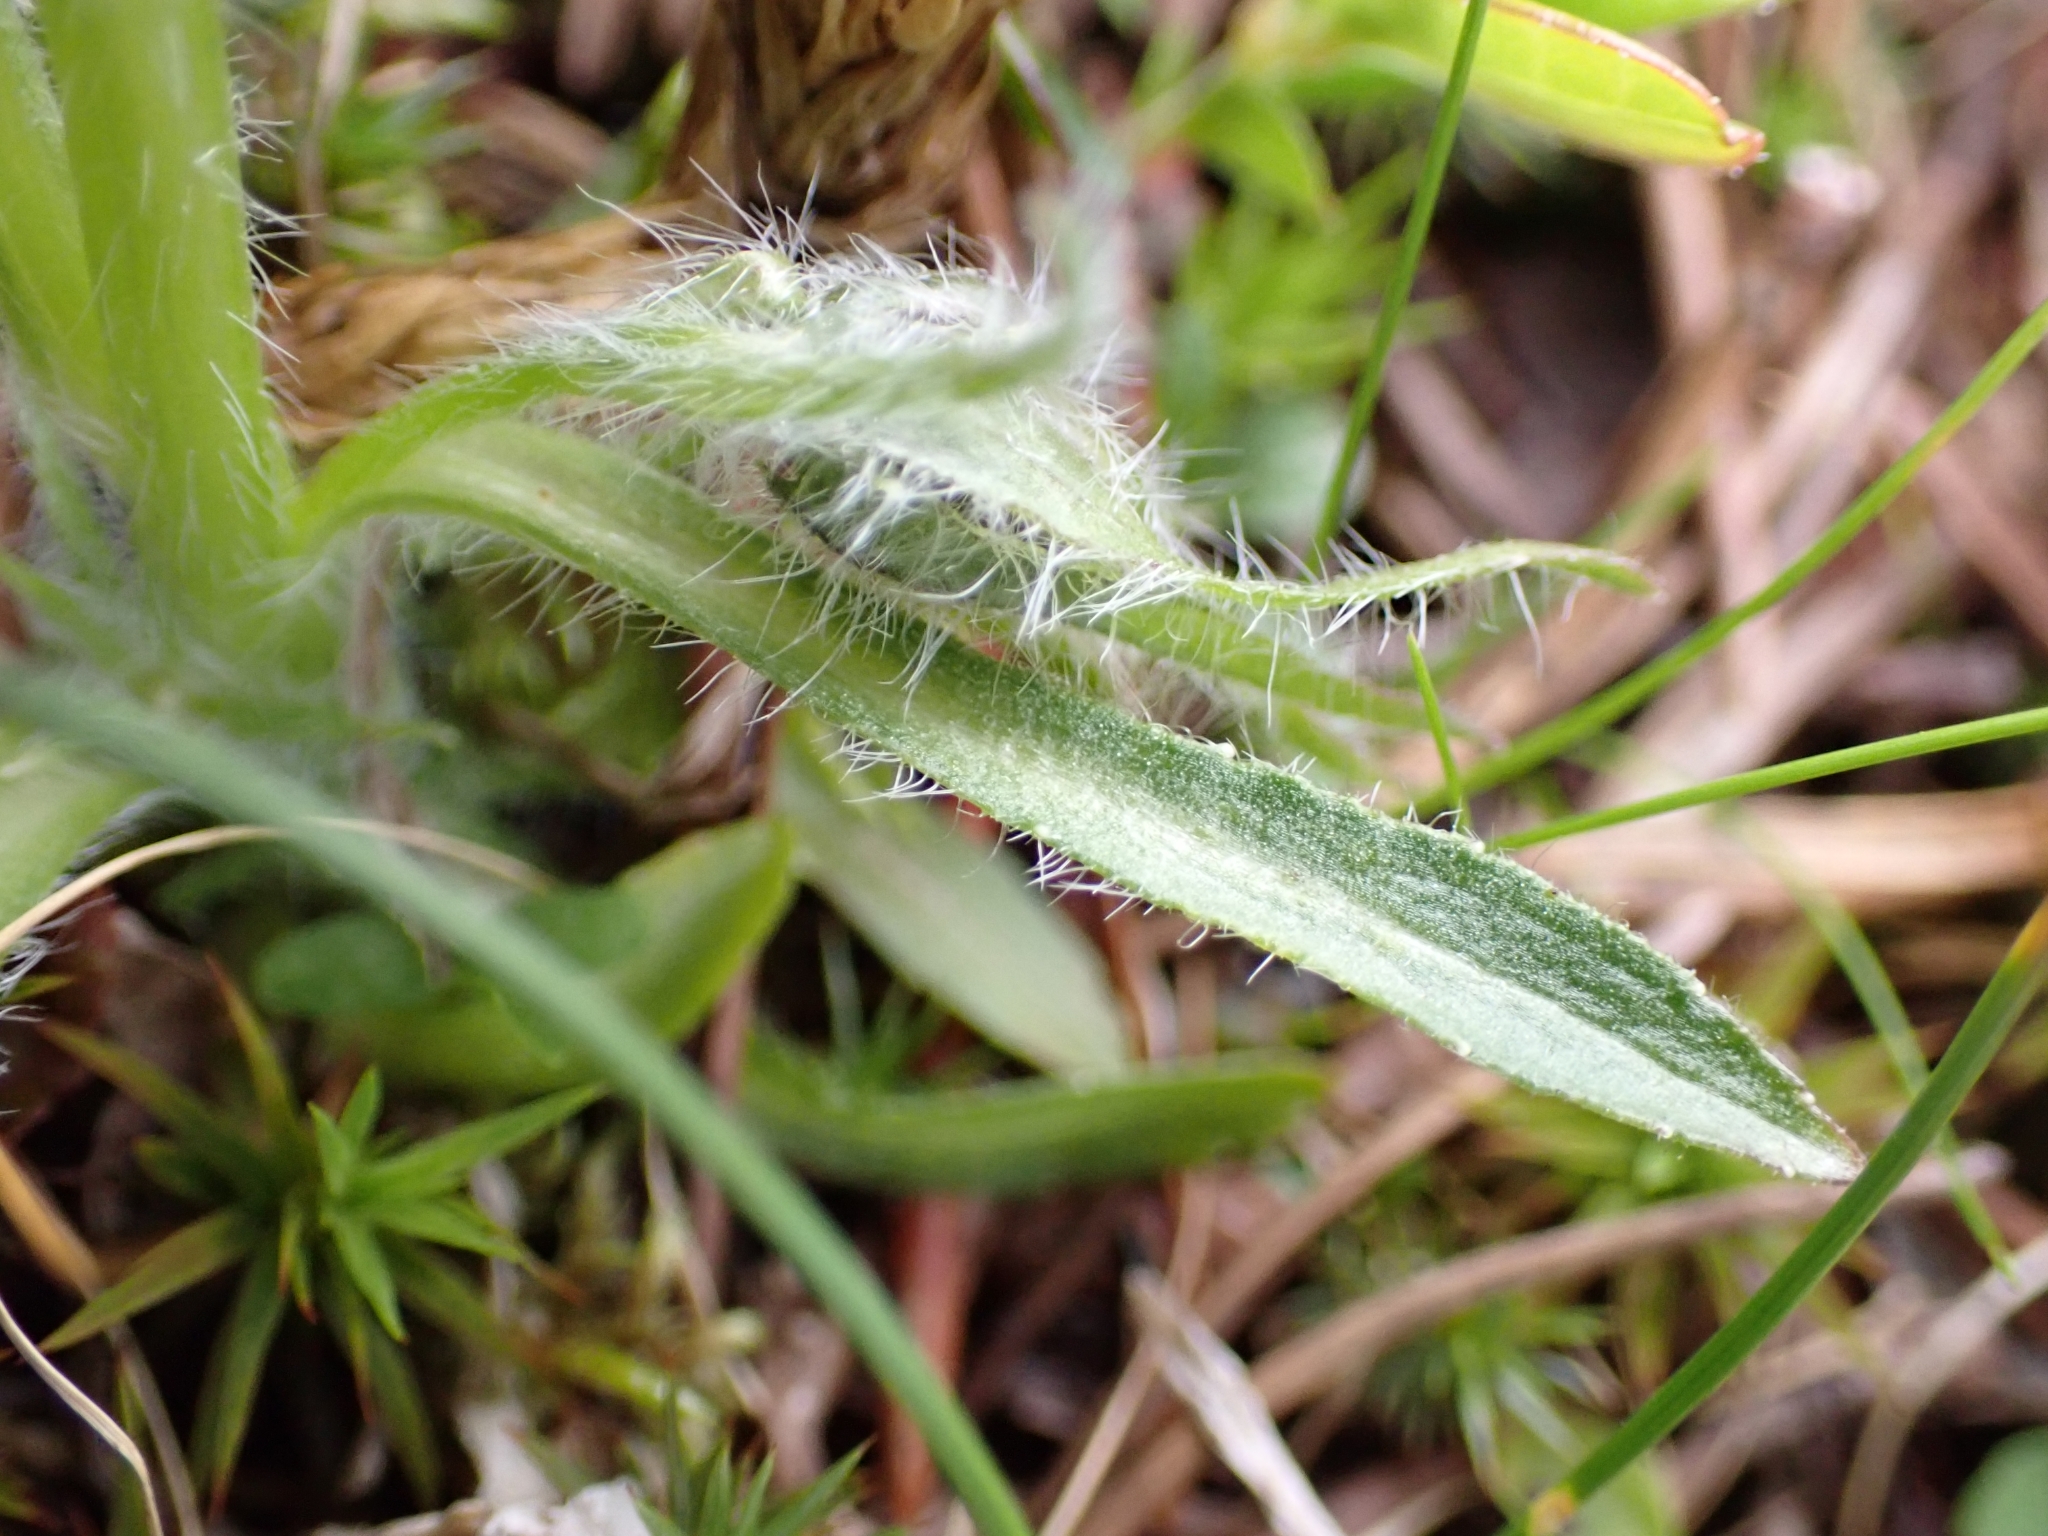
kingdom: Plantae
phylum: Tracheophyta
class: Magnoliopsida
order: Asterales
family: Campanulaceae
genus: Campanula
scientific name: Campanula alpina
